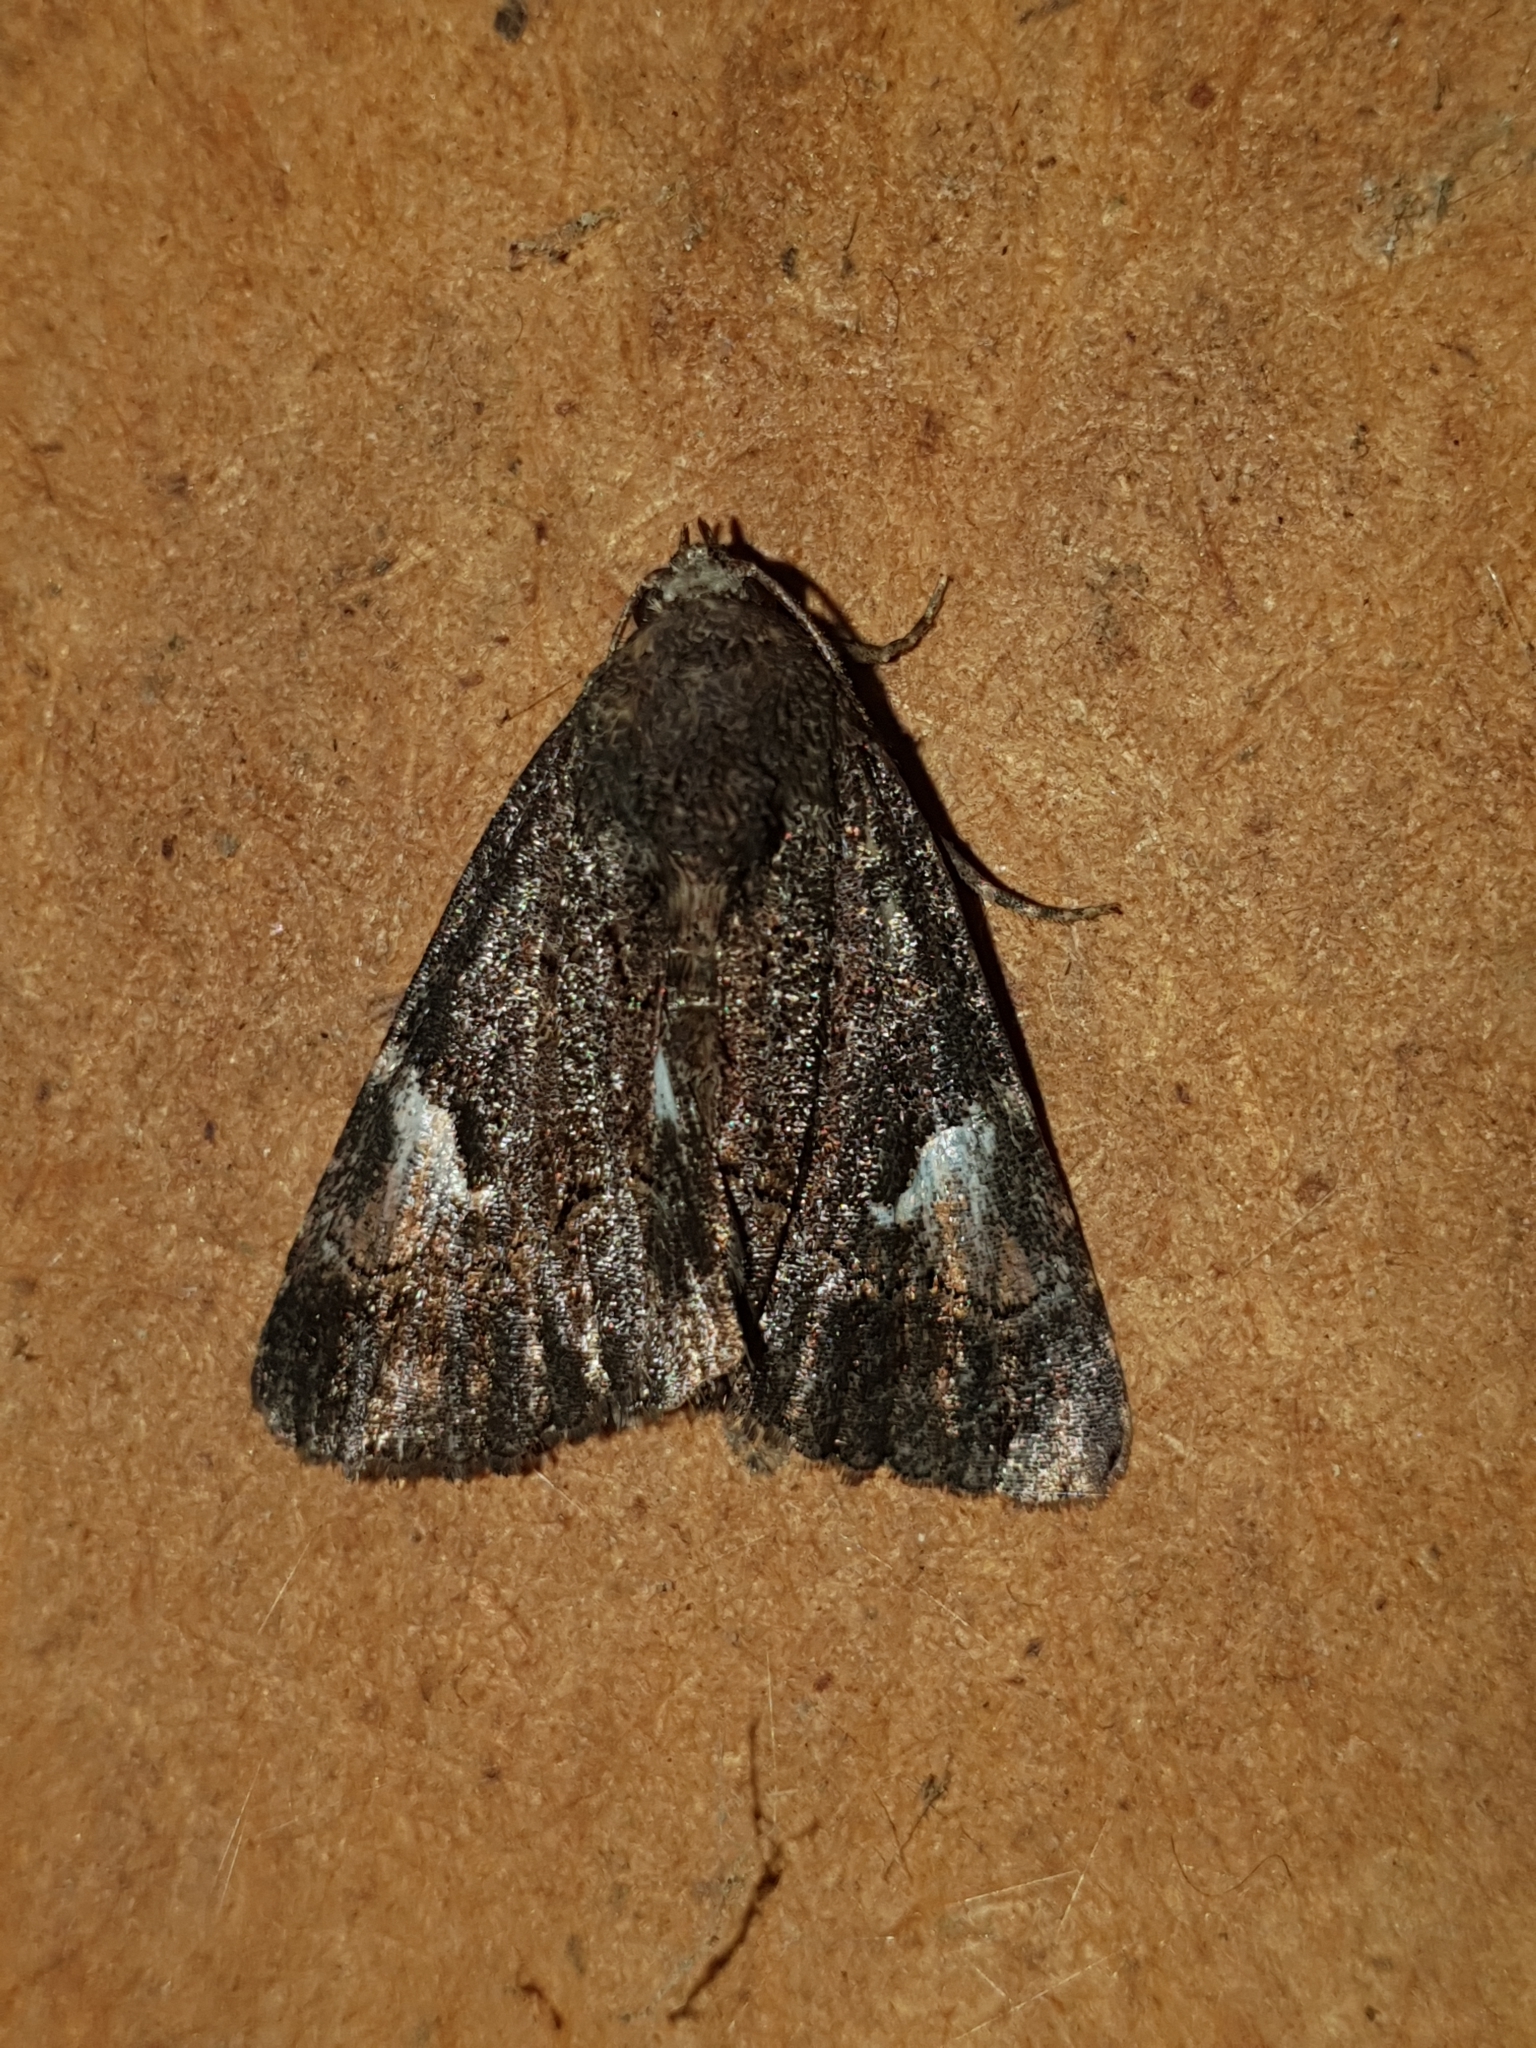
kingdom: Animalia
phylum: Arthropoda
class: Insecta
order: Lepidoptera
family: Noctuidae
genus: Aedia
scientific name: Aedia funesta
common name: The druid
